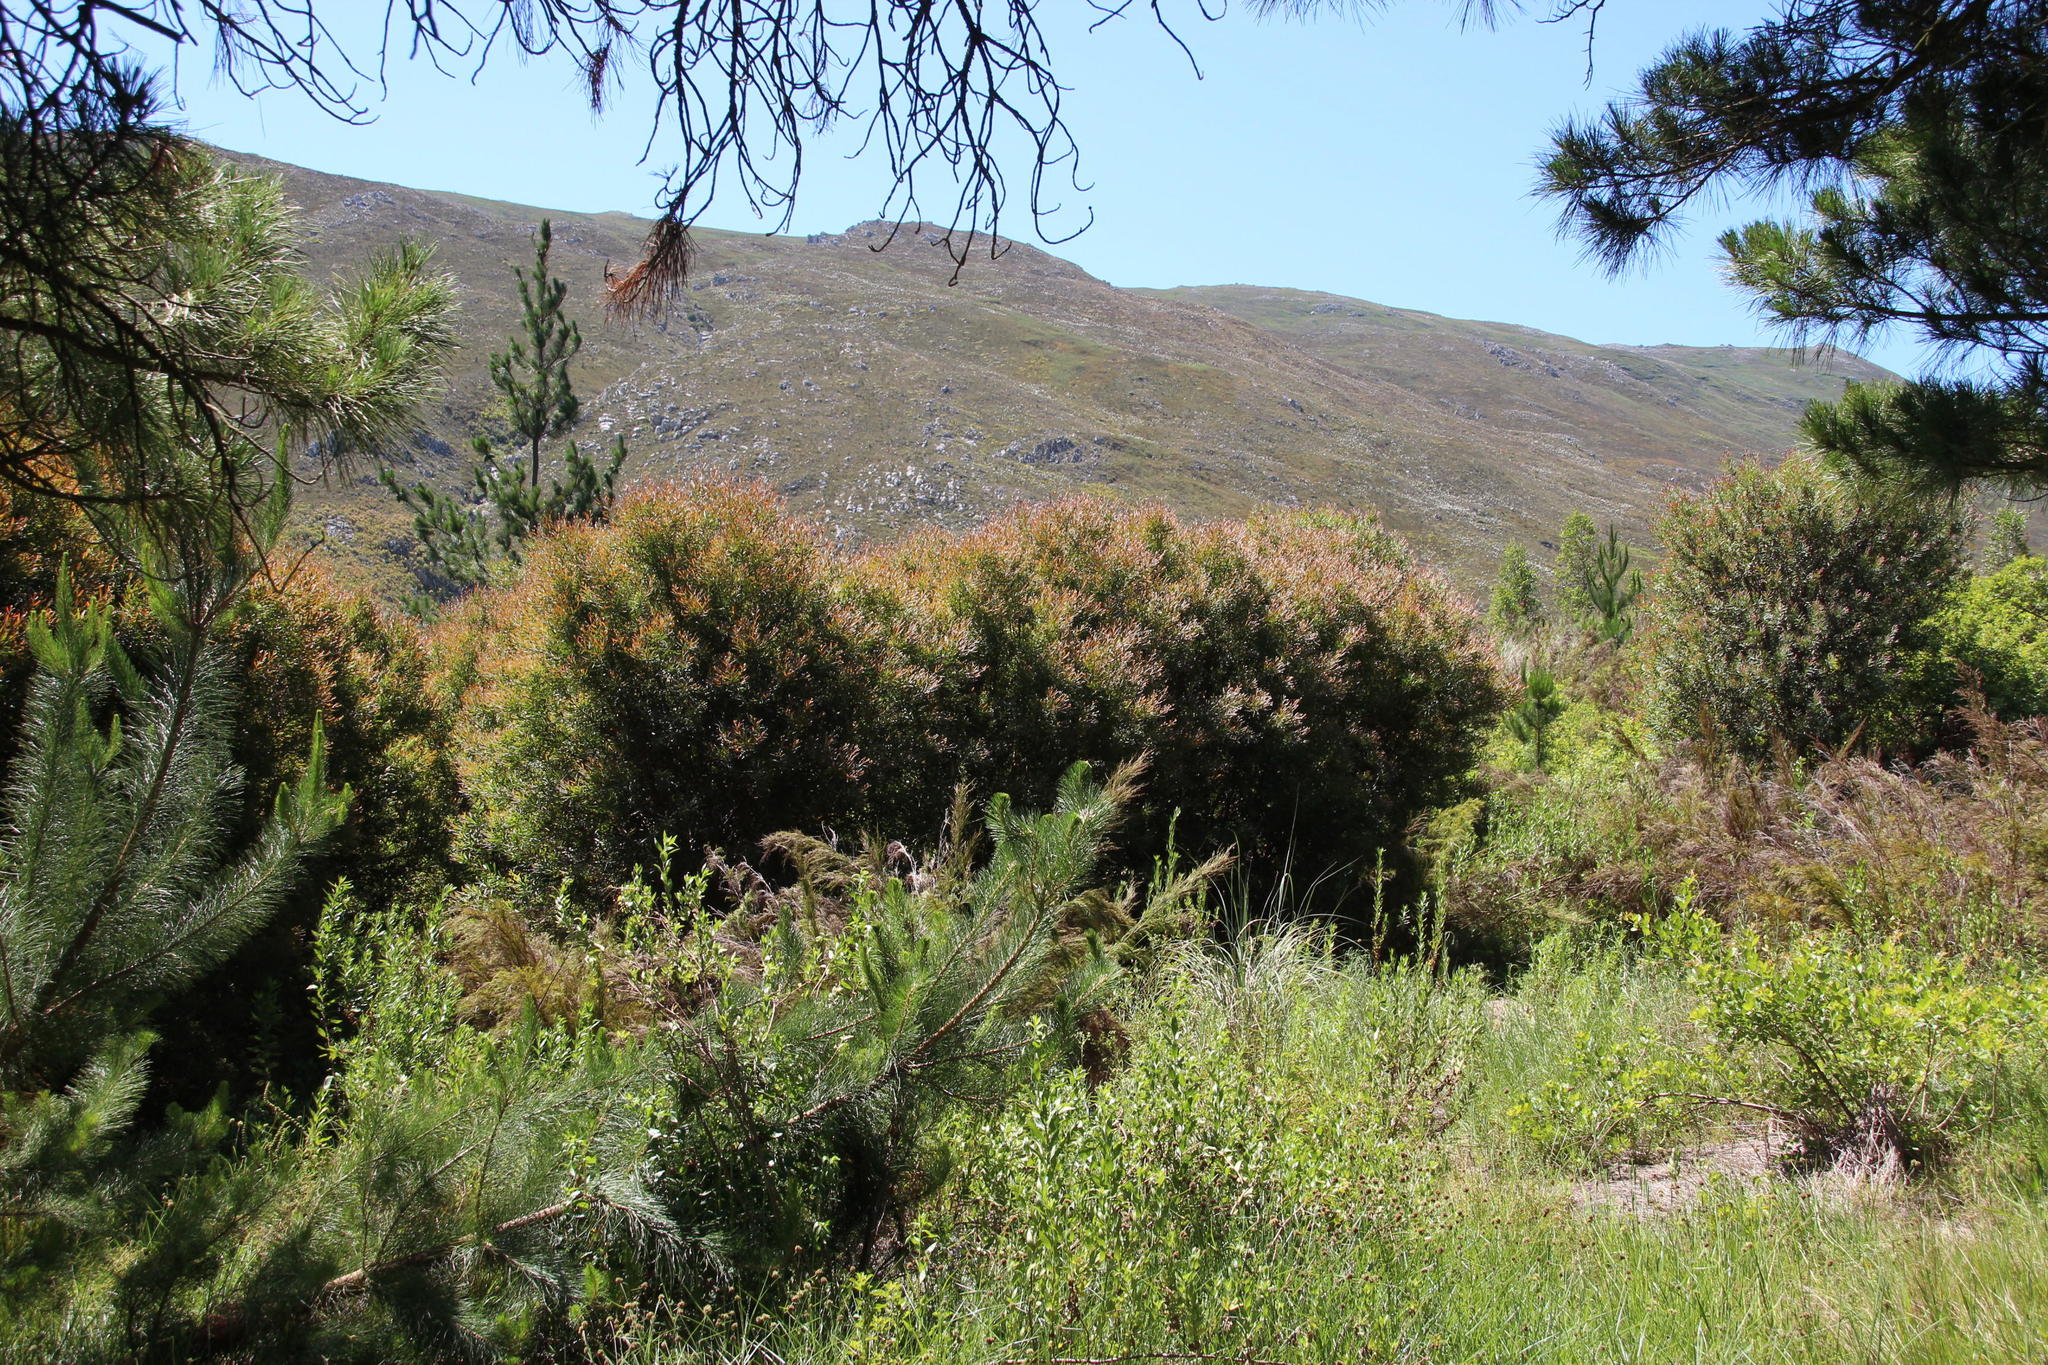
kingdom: Plantae
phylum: Tracheophyta
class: Magnoliopsida
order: Proteales
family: Proteaceae
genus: Hakea
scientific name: Hakea salicifolia
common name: Willow hakea
